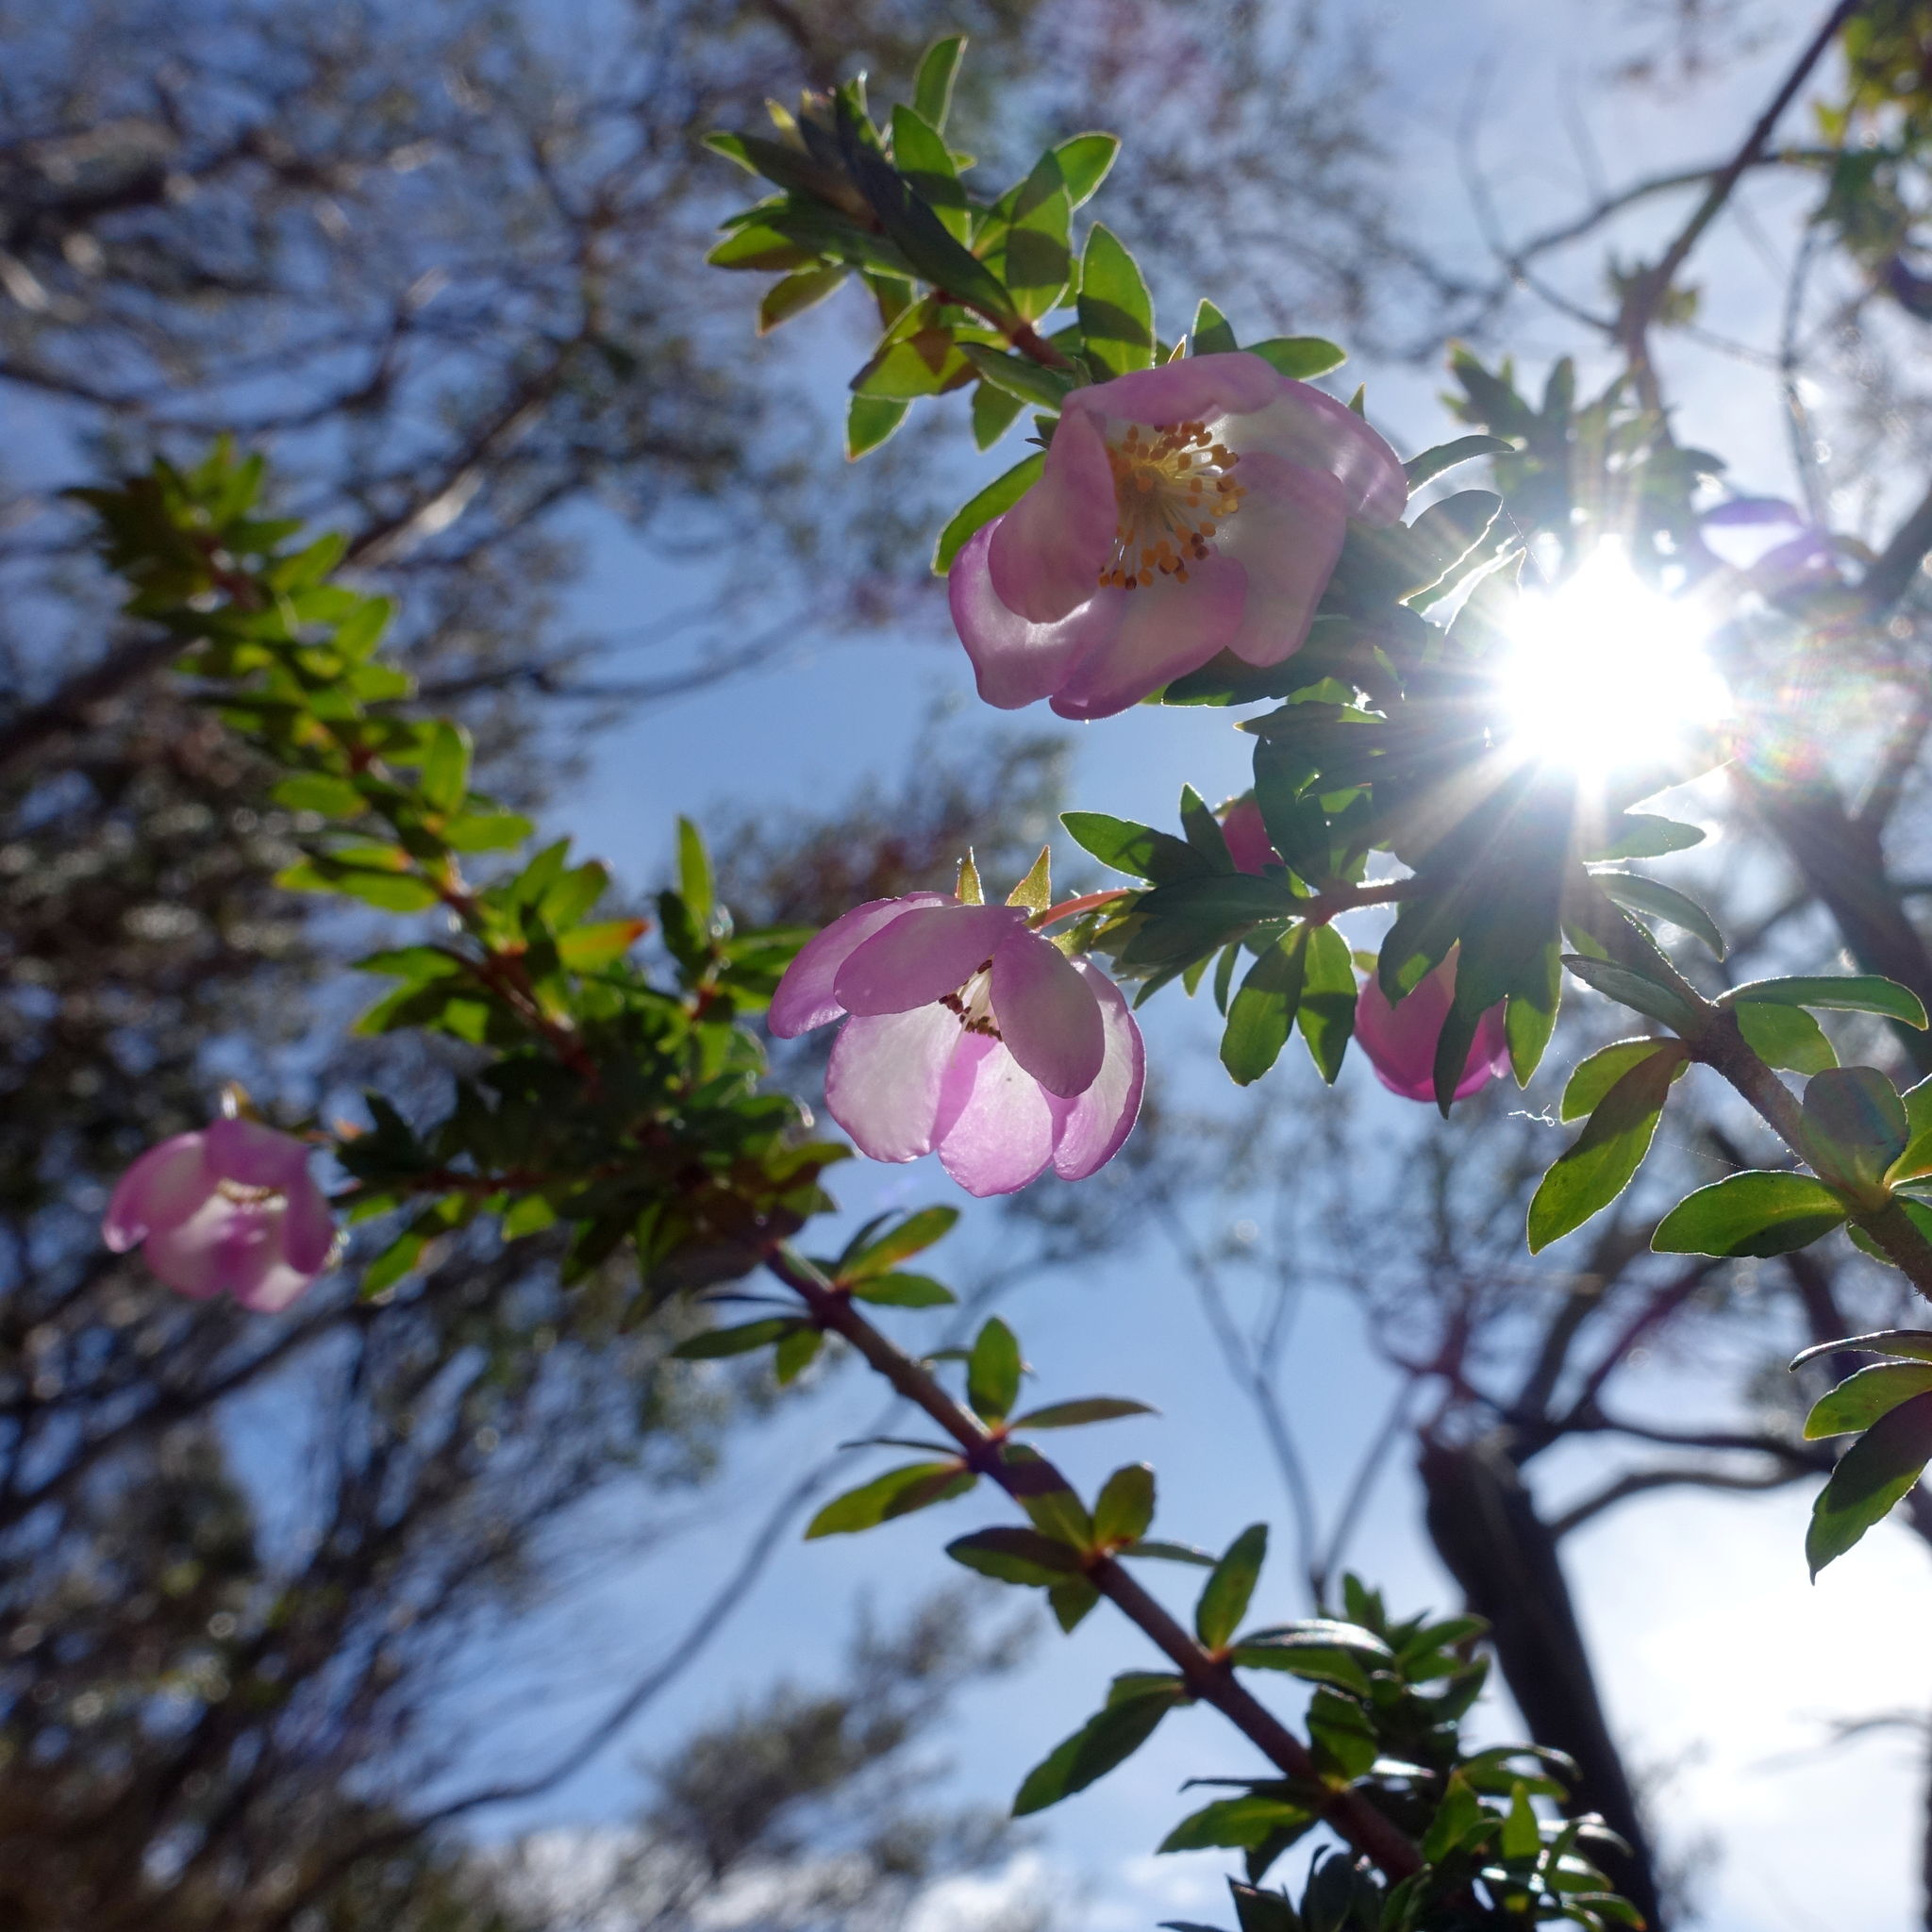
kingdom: Plantae
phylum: Tracheophyta
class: Magnoliopsida
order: Oxalidales
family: Cunoniaceae
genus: Bauera
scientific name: Bauera rubioides
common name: River-rose
